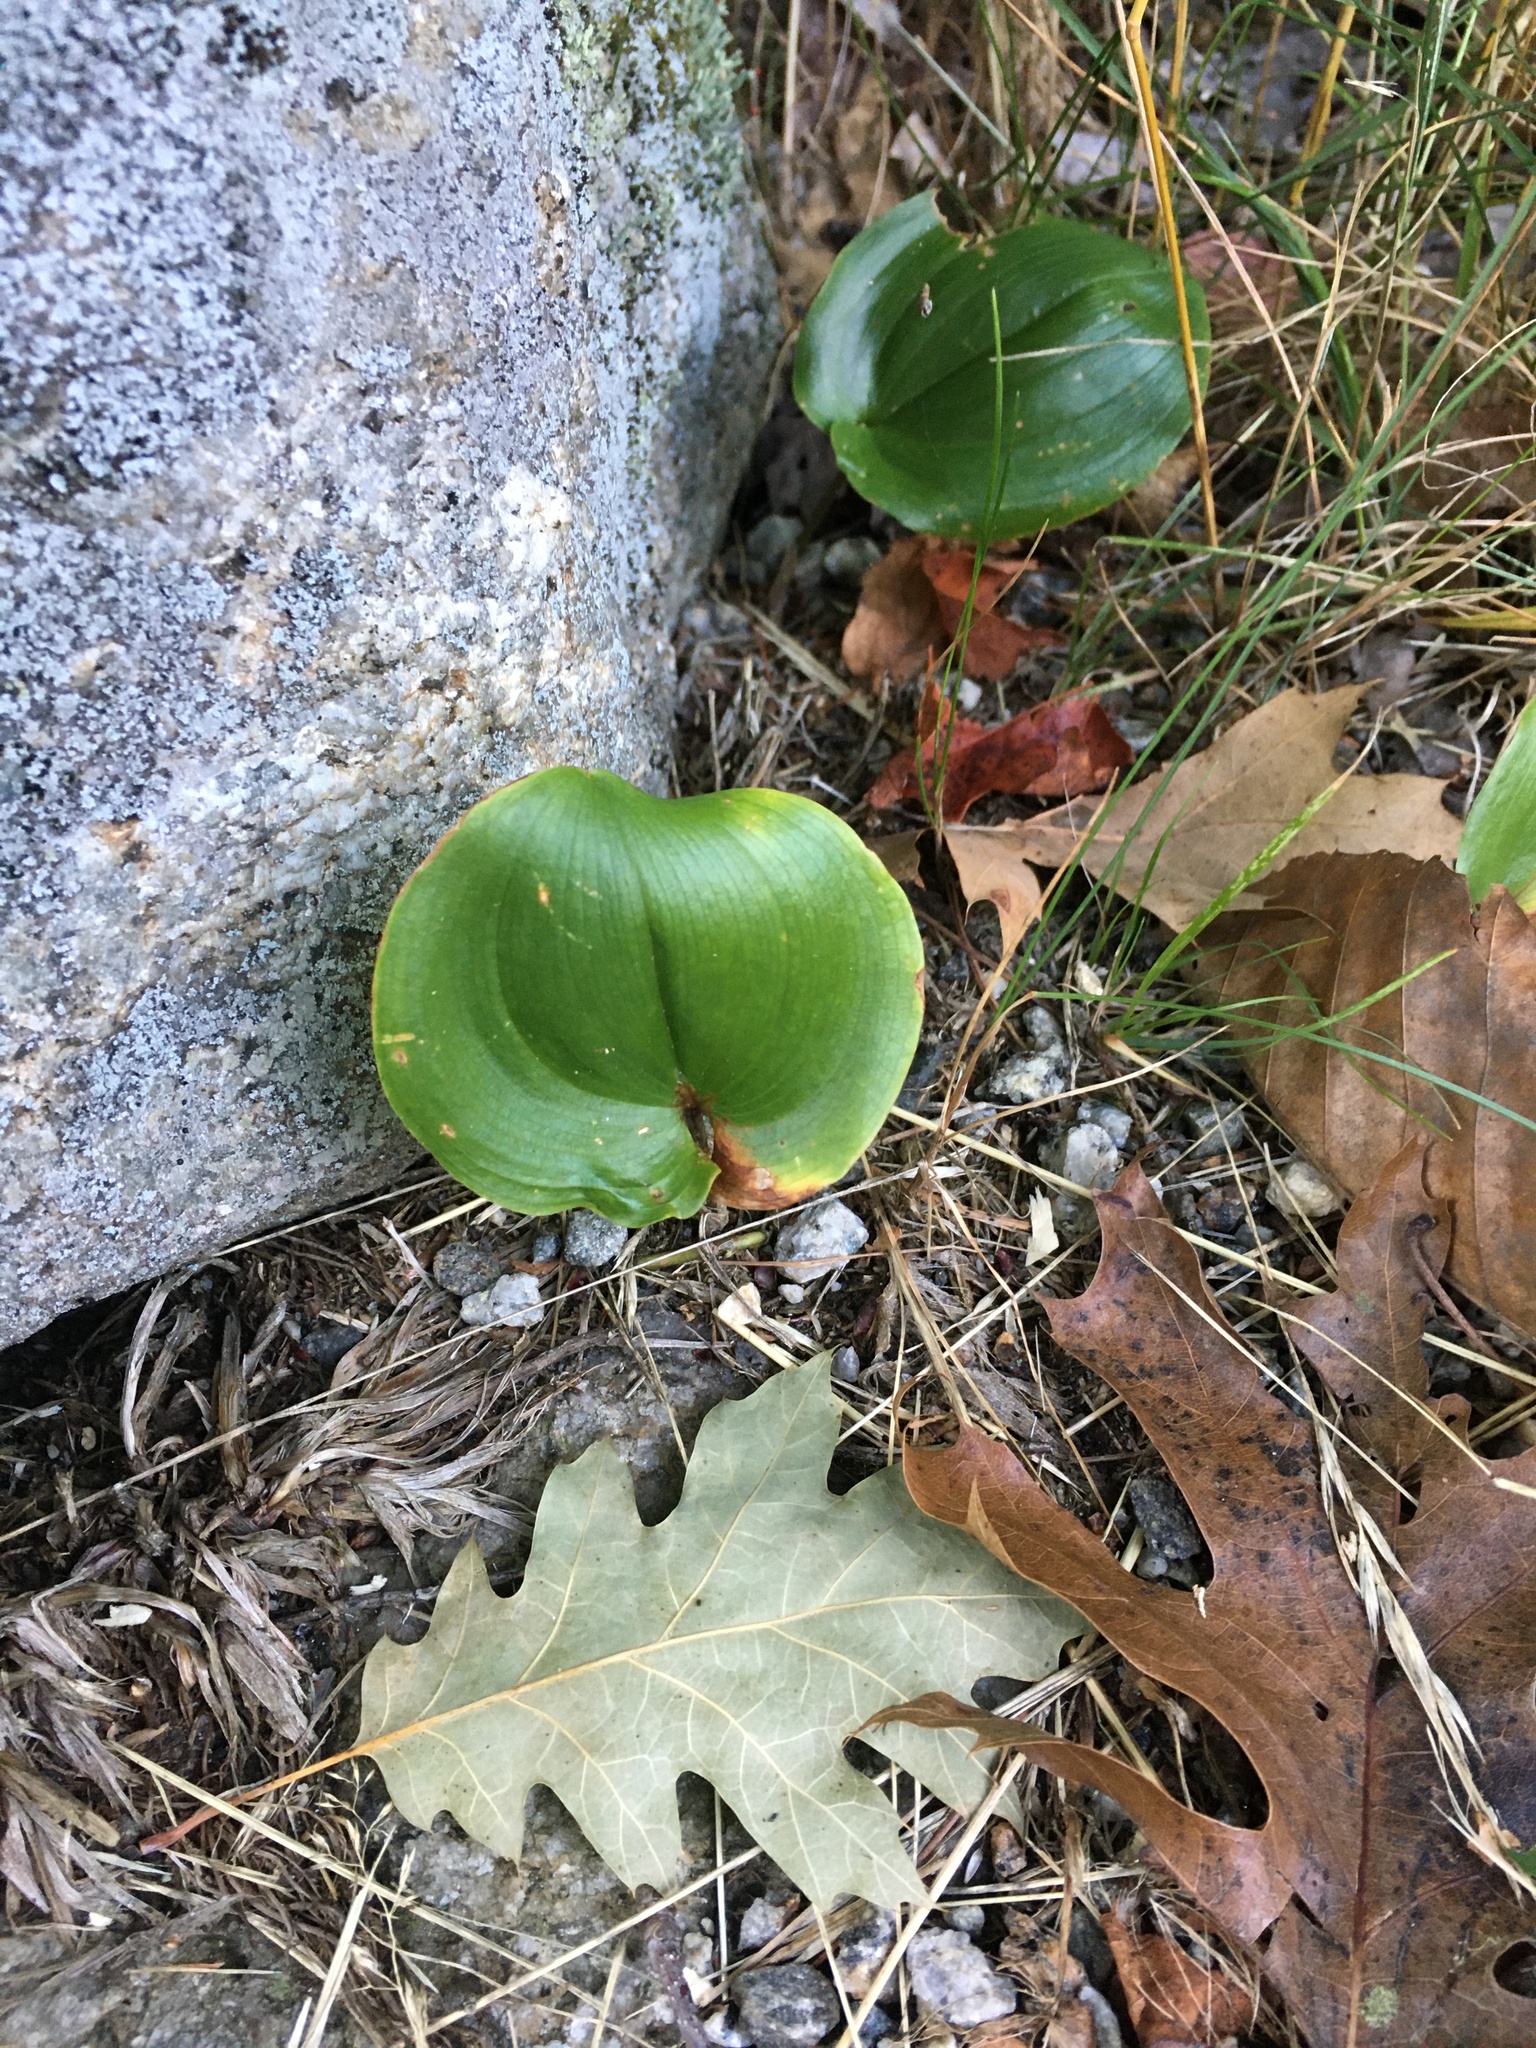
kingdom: Plantae
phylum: Tracheophyta
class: Liliopsida
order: Asparagales
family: Asparagaceae
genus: Maianthemum
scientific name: Maianthemum canadense
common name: False lily-of-the-valley
